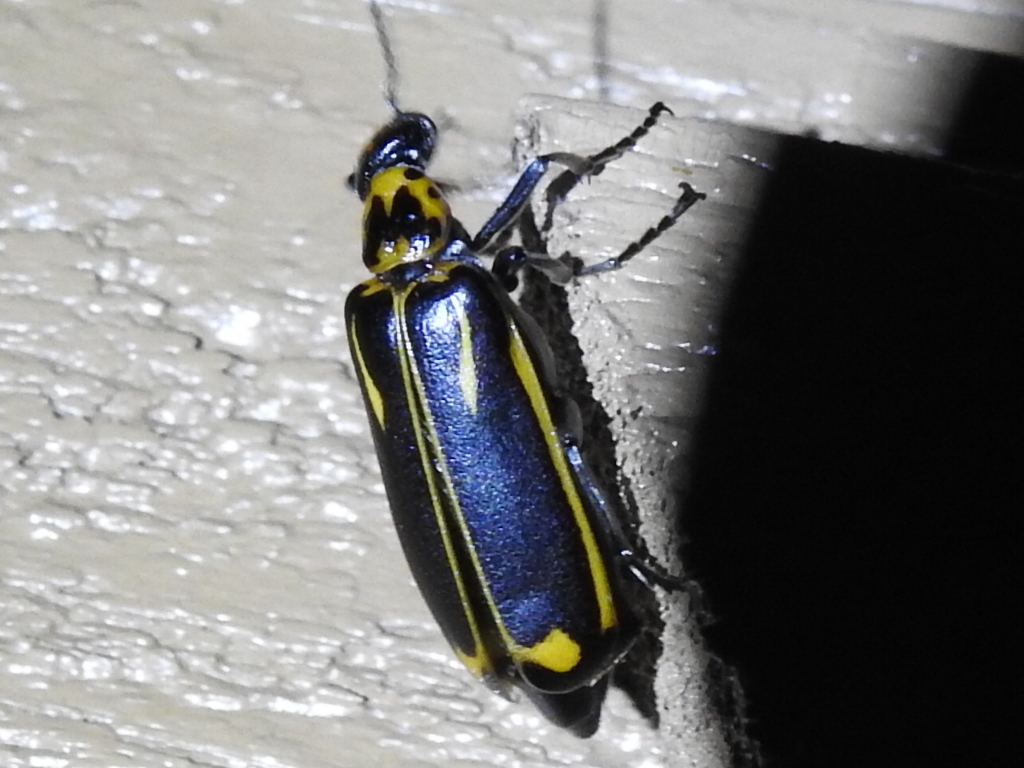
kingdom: Animalia
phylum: Arthropoda
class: Insecta
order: Coleoptera
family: Meloidae
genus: Pyrota
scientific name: Pyrota insulata
